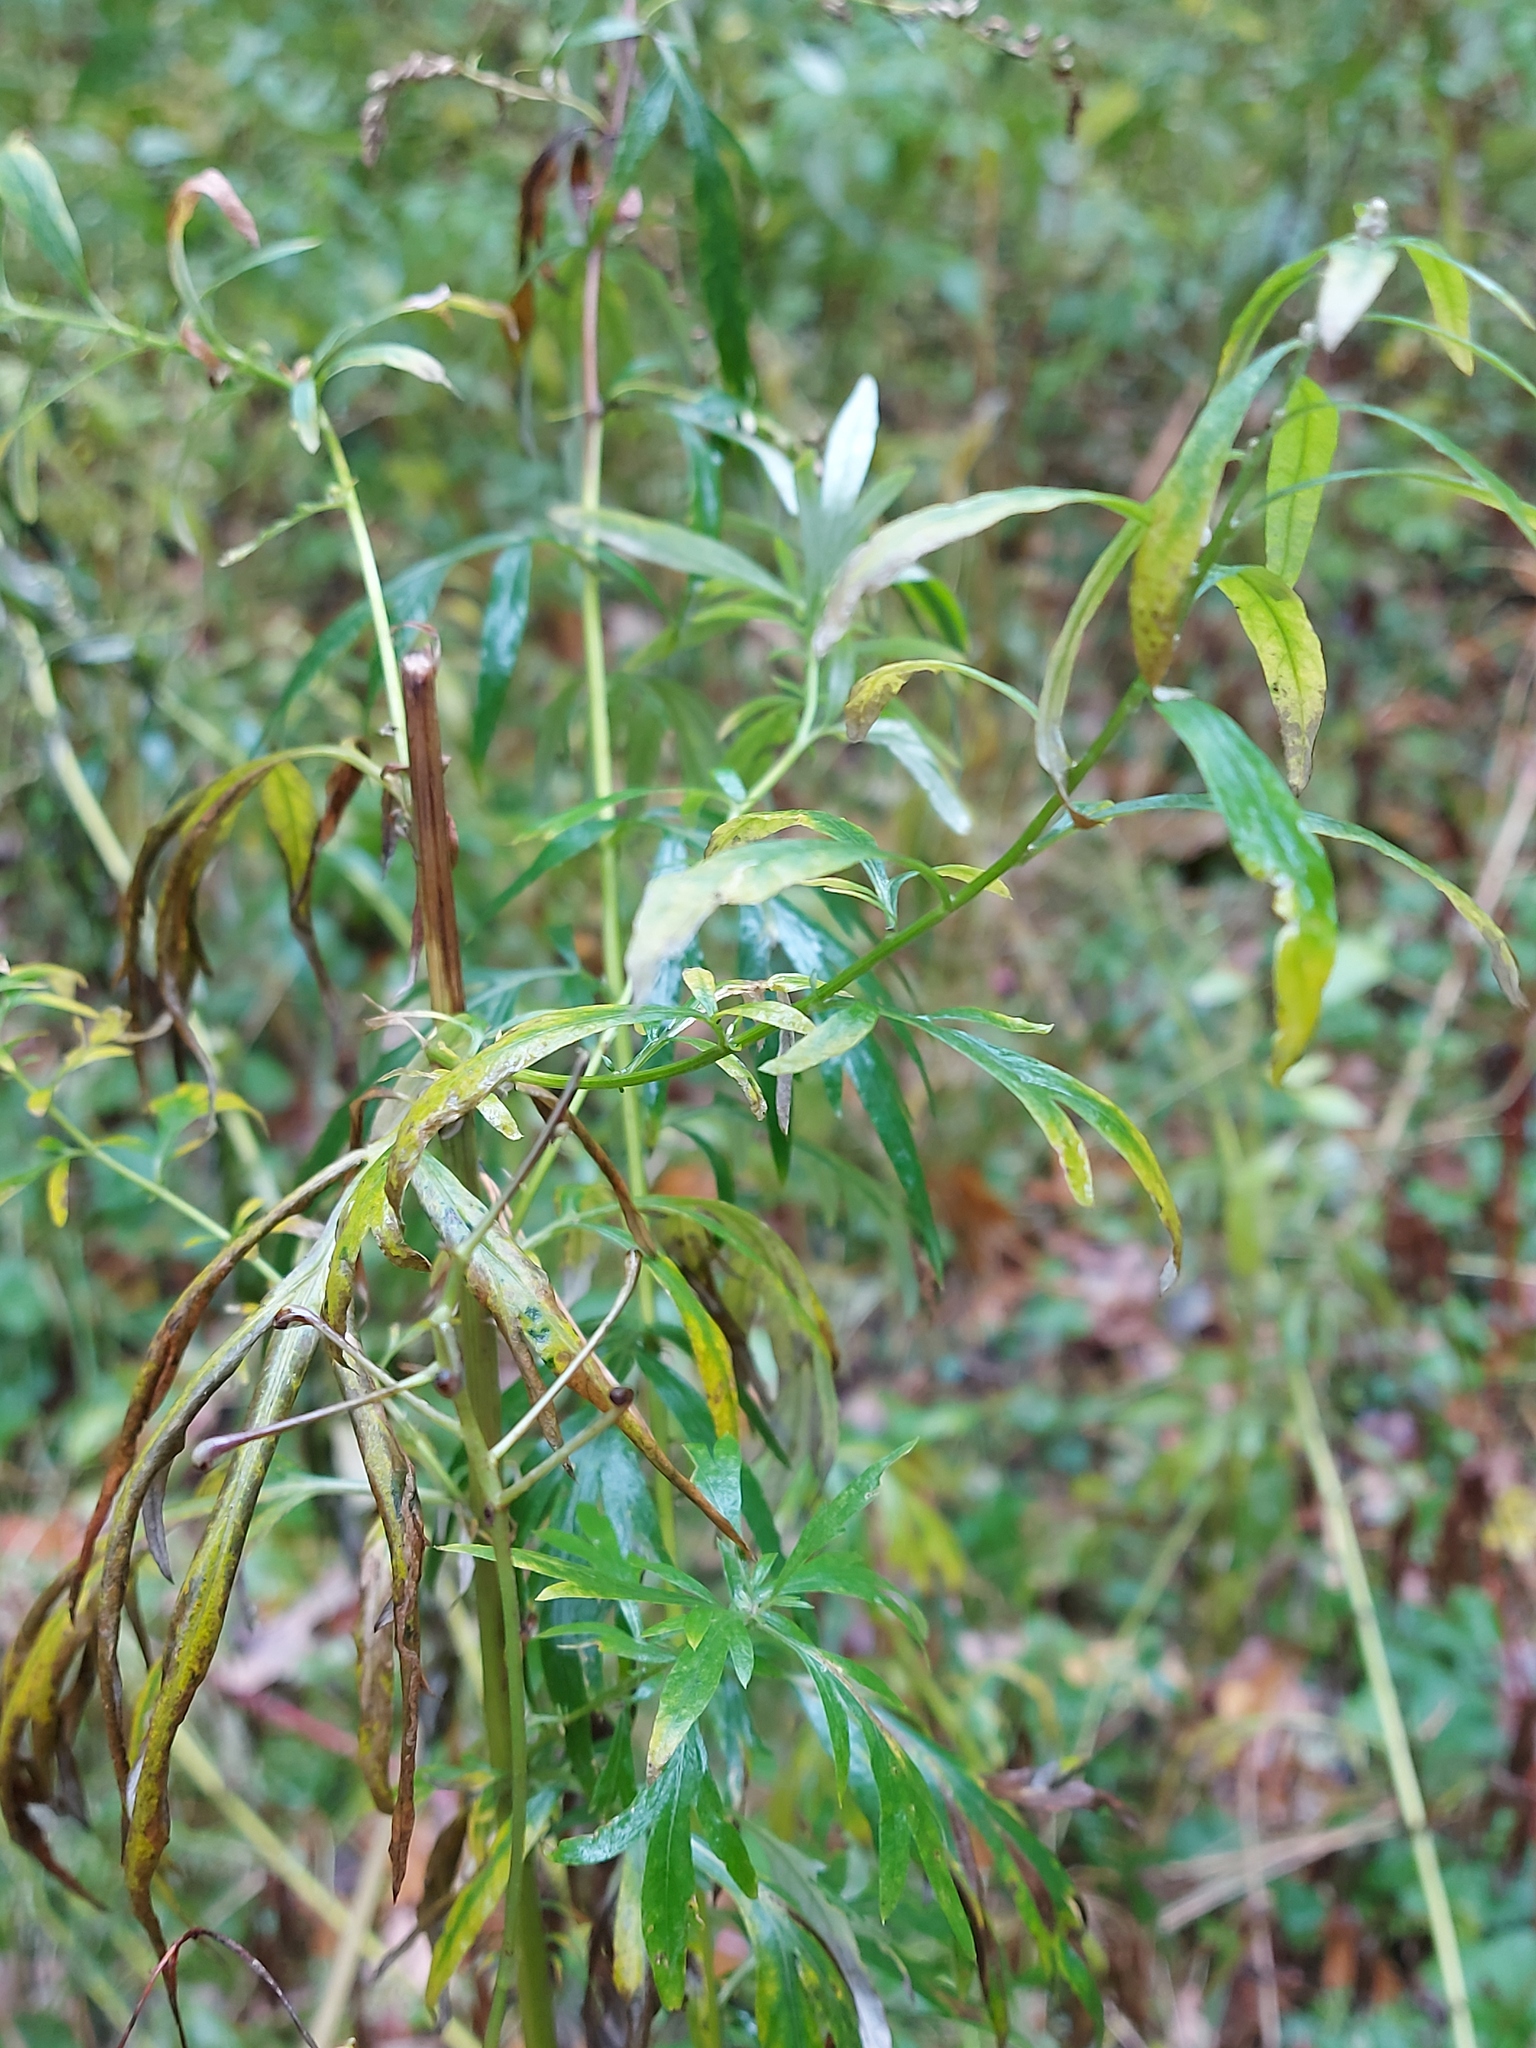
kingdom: Plantae
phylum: Tracheophyta
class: Magnoliopsida
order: Asterales
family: Asteraceae
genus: Artemisia
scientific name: Artemisia vulgaris
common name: Mugwort
